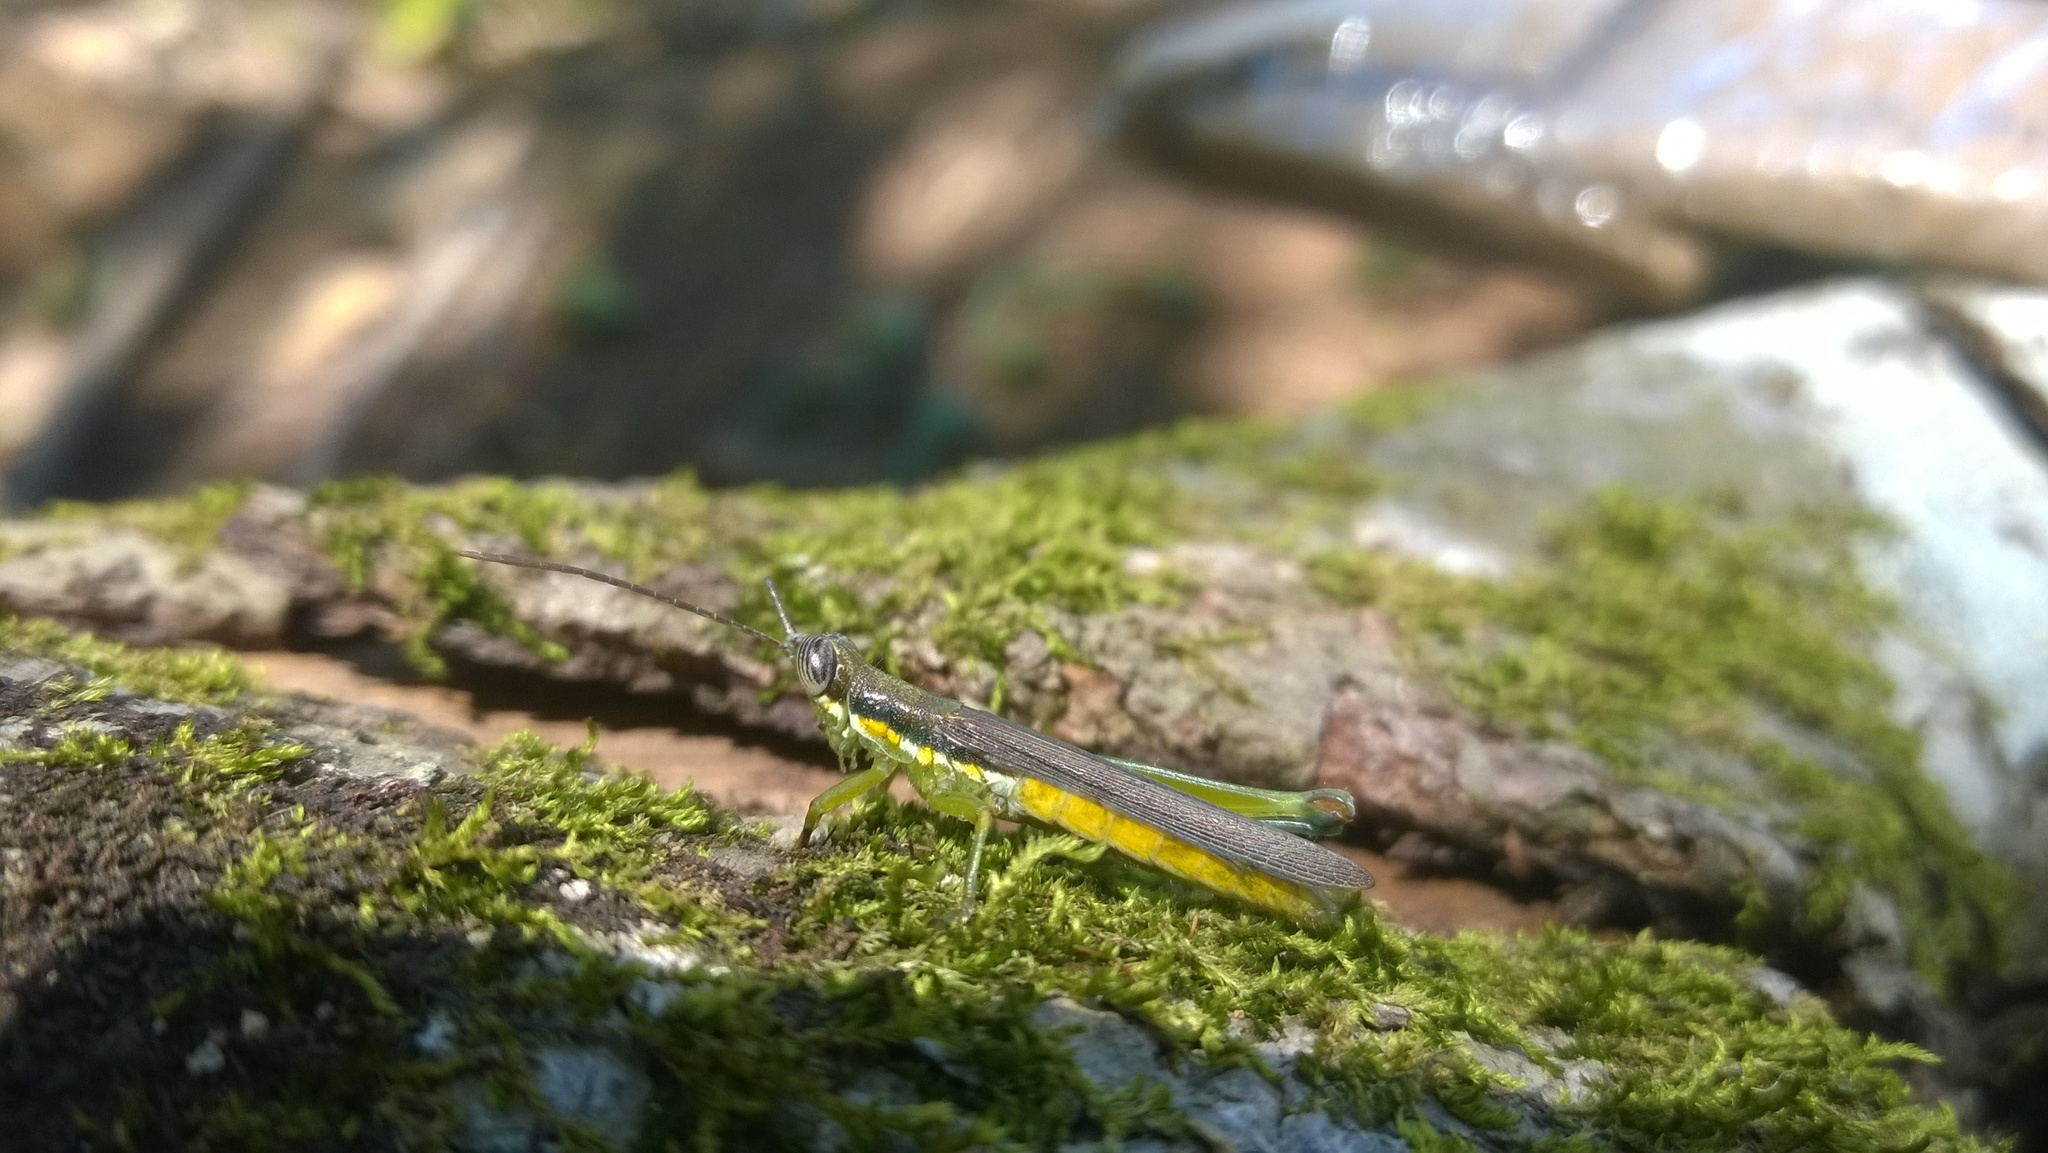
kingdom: Animalia
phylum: Arthropoda
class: Insecta
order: Orthoptera
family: Acrididae
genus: Stenopola
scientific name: Stenopola puncticeps
